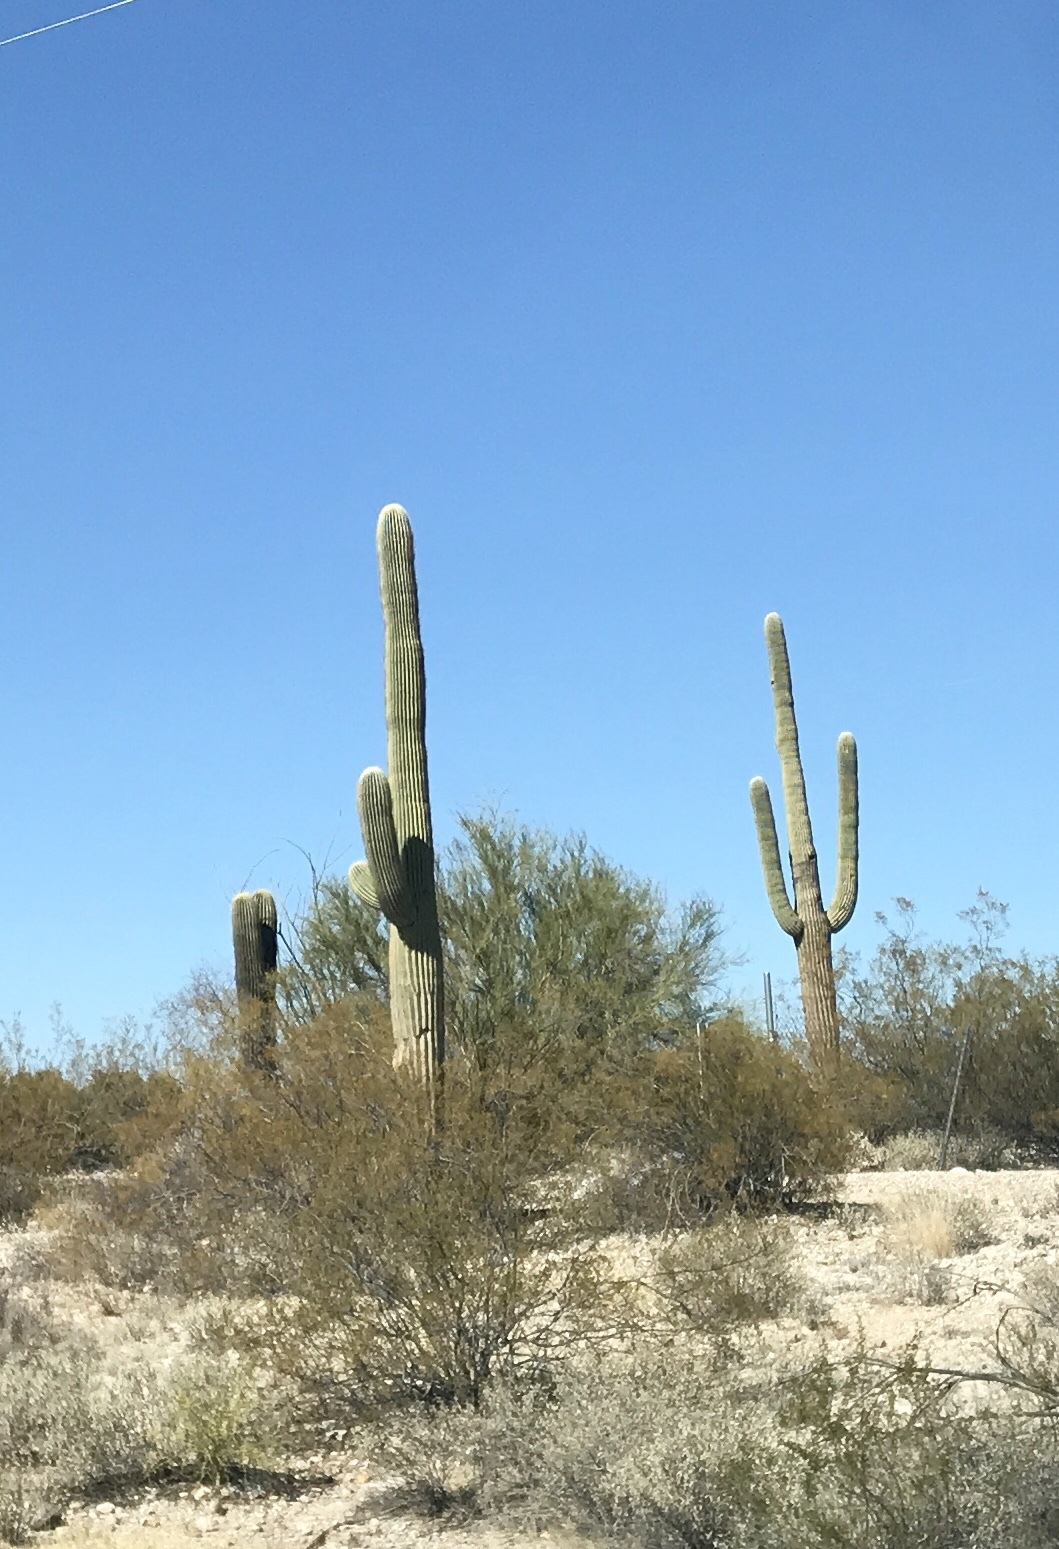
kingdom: Plantae
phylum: Tracheophyta
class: Magnoliopsida
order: Caryophyllales
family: Cactaceae
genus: Carnegiea
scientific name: Carnegiea gigantea
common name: Saguaro
